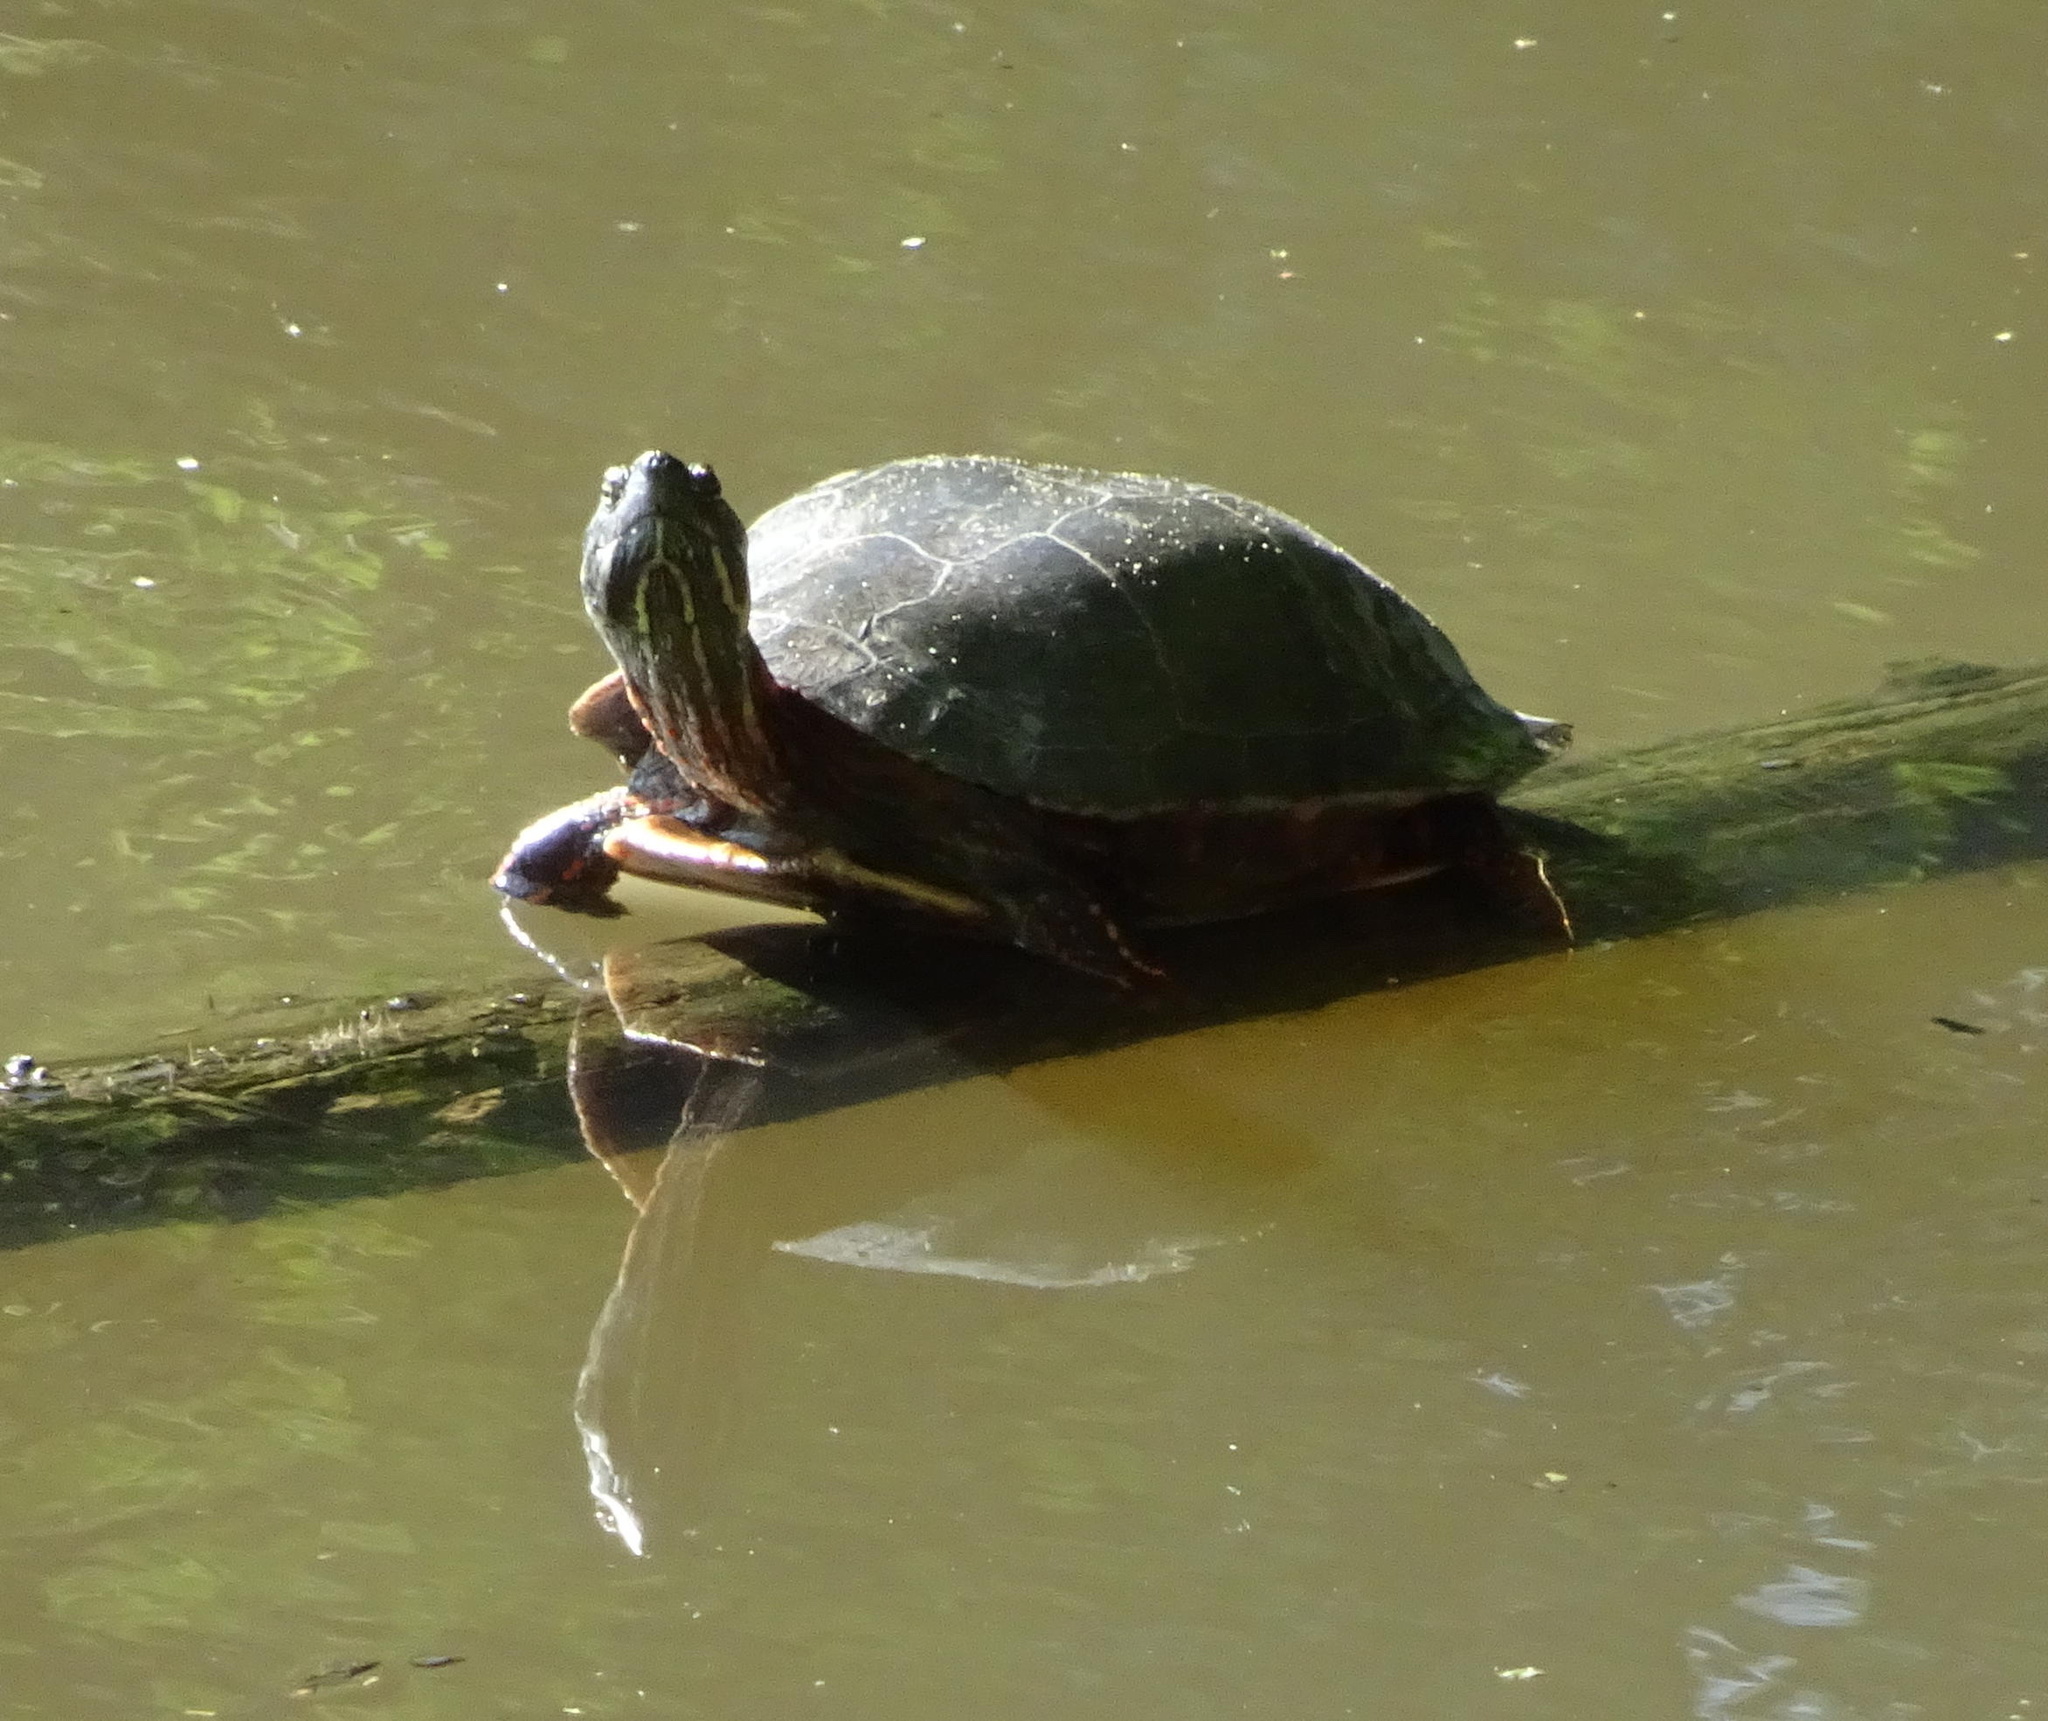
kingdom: Animalia
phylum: Chordata
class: Testudines
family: Emydidae
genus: Chrysemys
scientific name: Chrysemys picta
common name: Painted turtle
